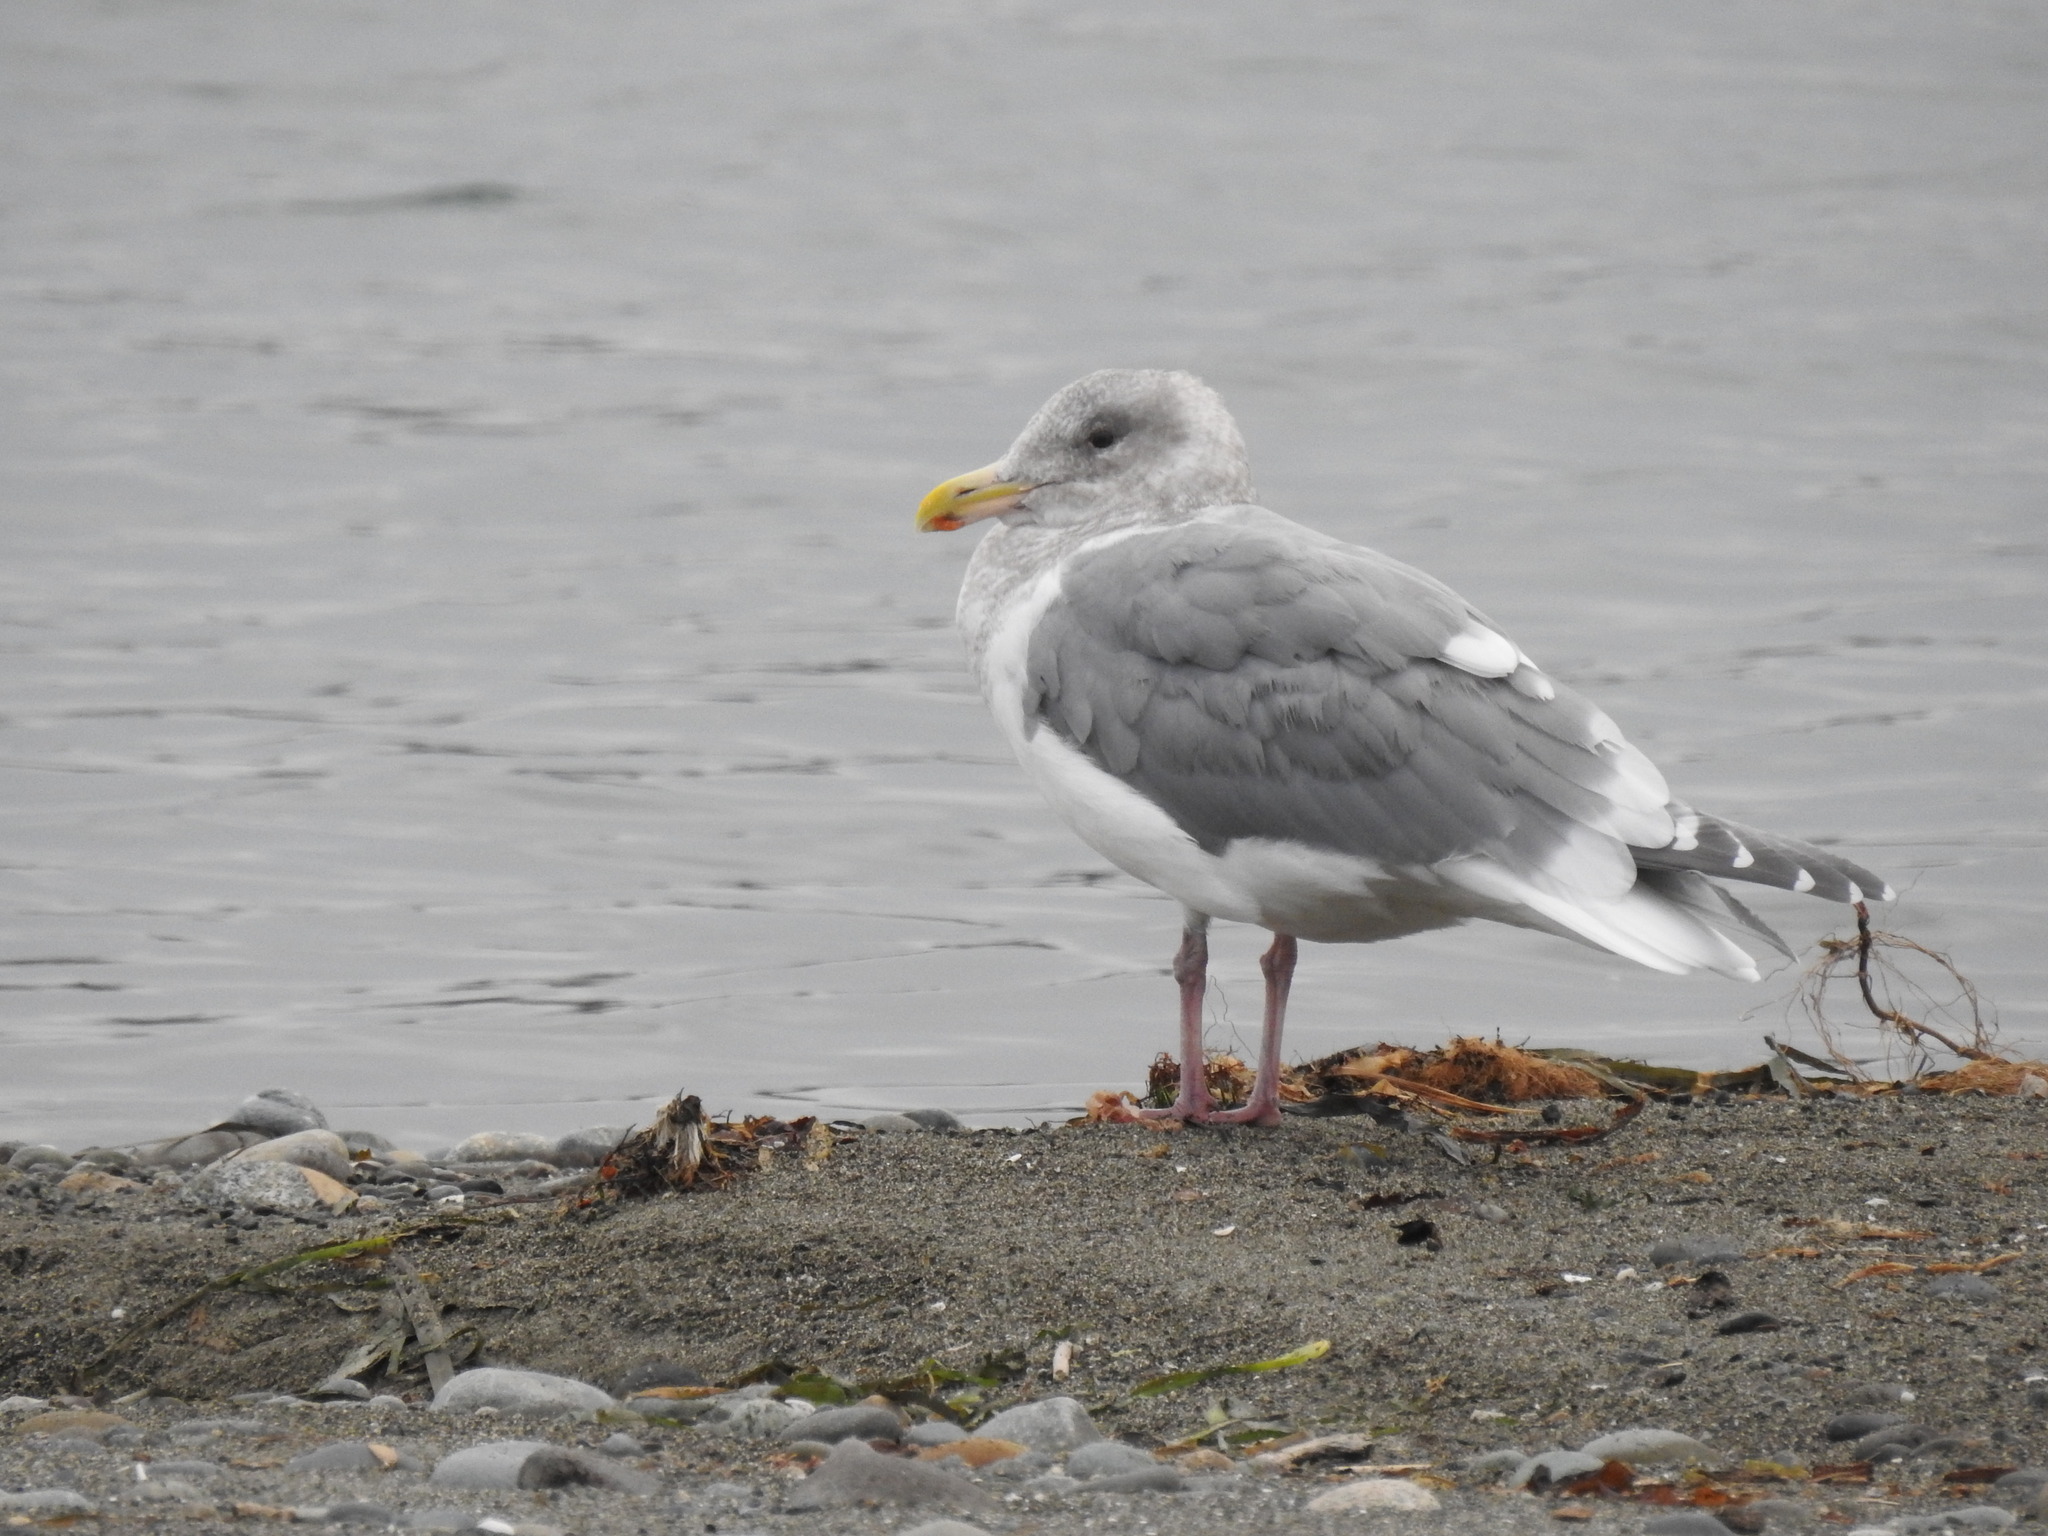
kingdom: Animalia
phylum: Chordata
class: Aves
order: Charadriiformes
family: Laridae
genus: Larus
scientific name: Larus
